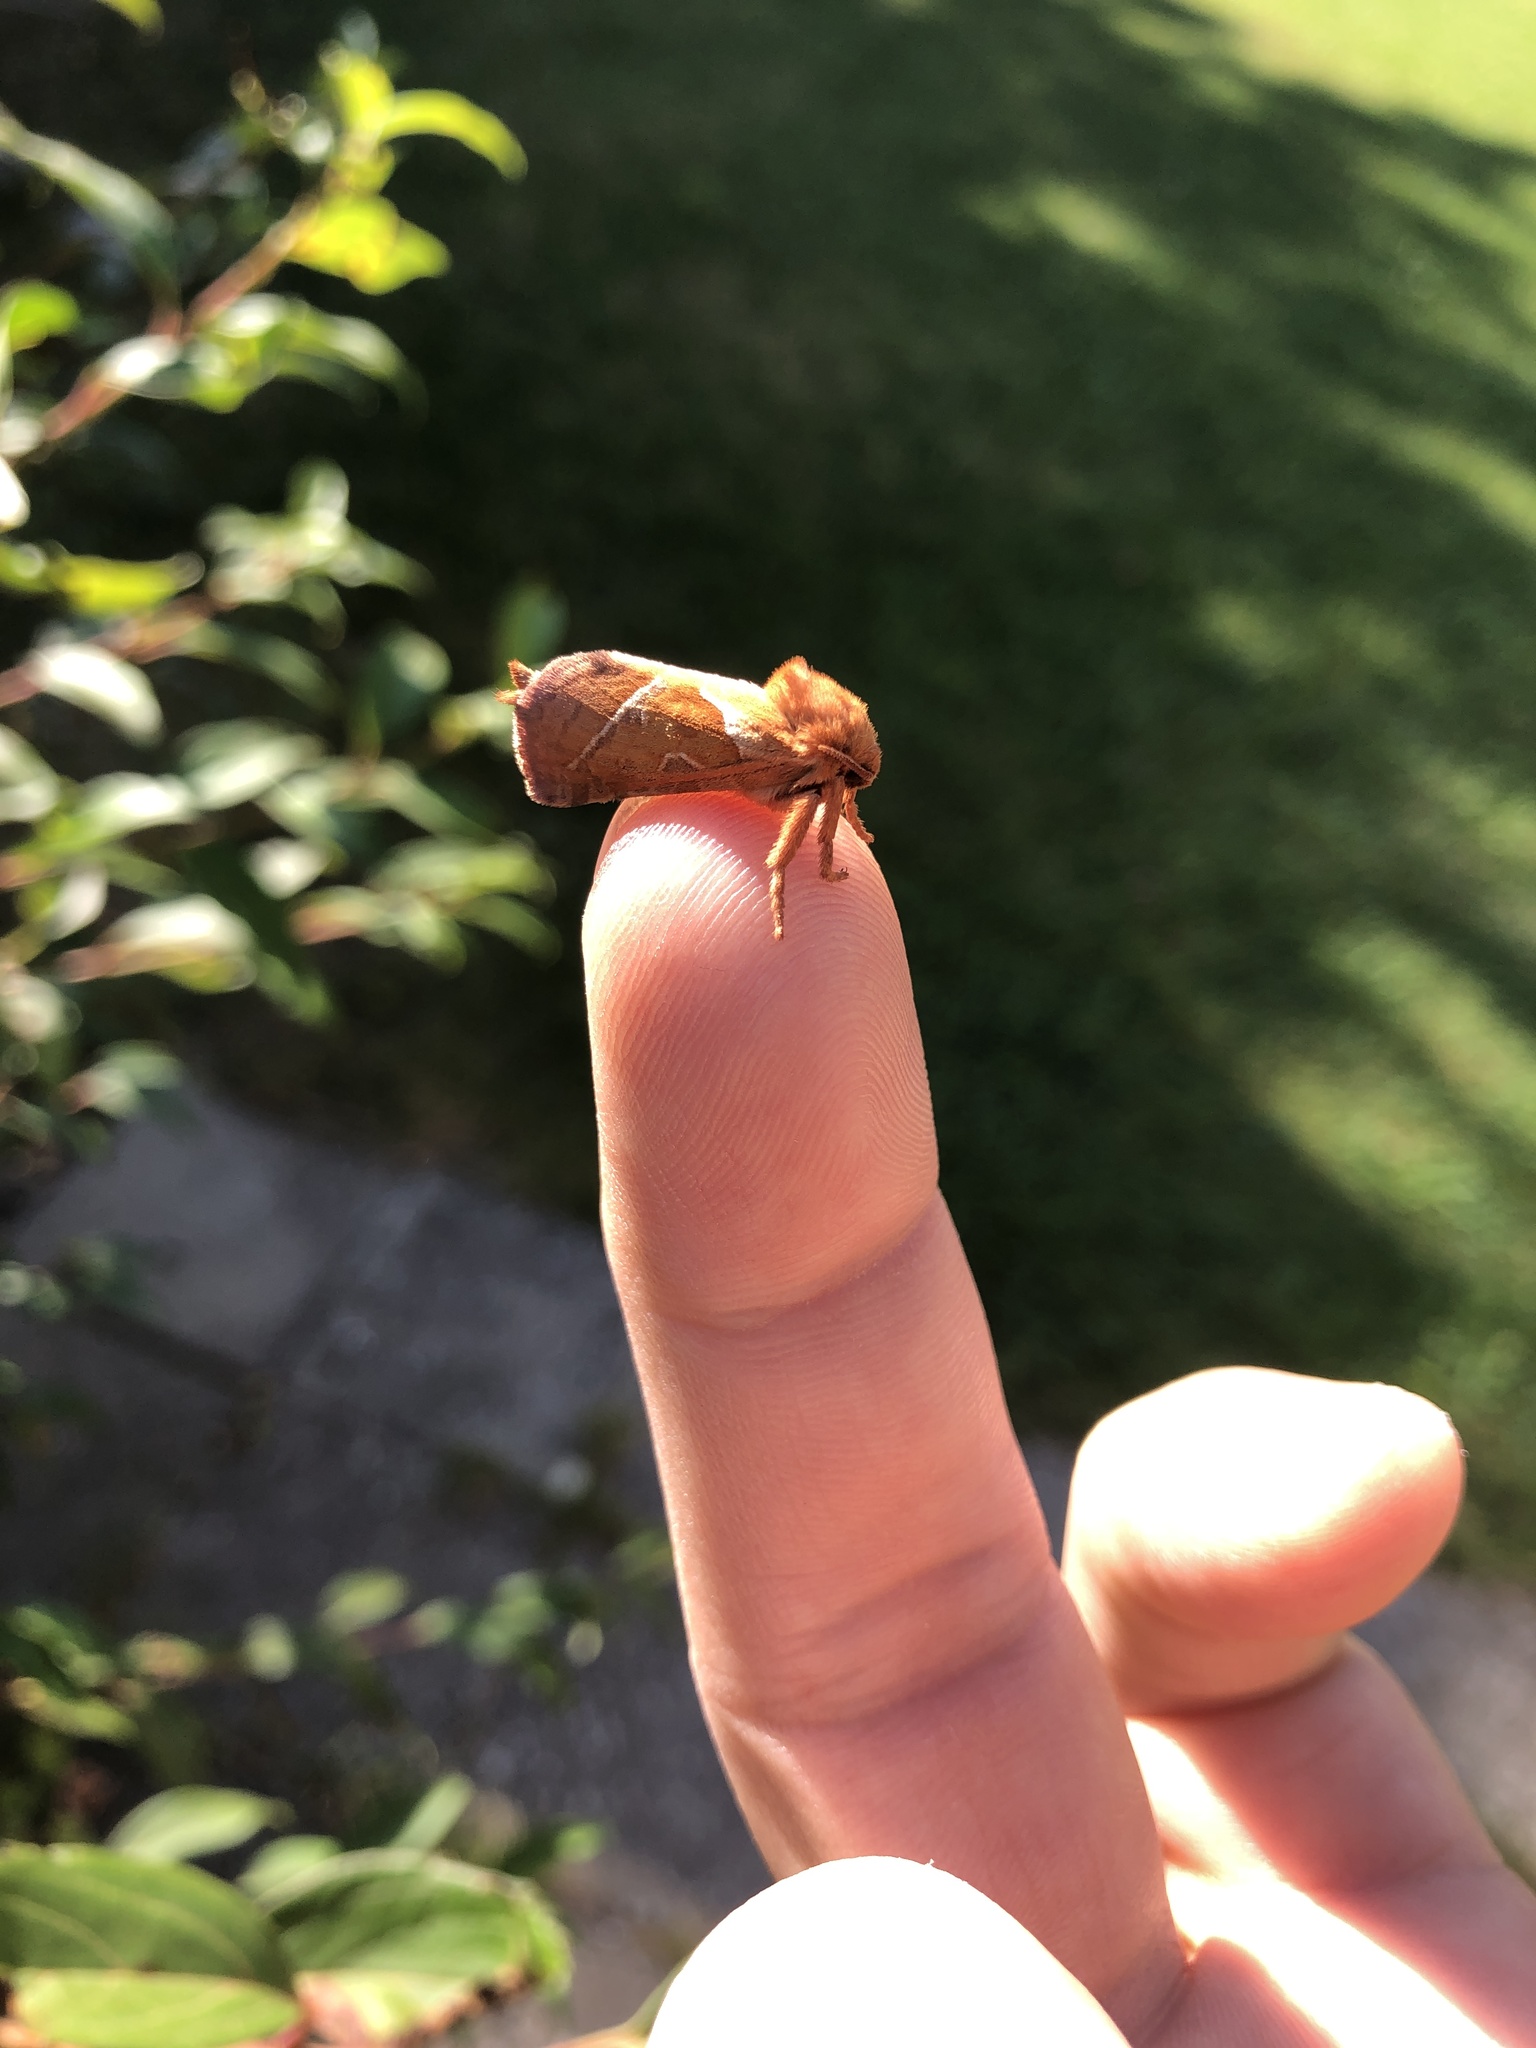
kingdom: Animalia
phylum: Arthropoda
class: Insecta
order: Lepidoptera
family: Hepialidae
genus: Triodia
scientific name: Triodia sylvina
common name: Orange swift
